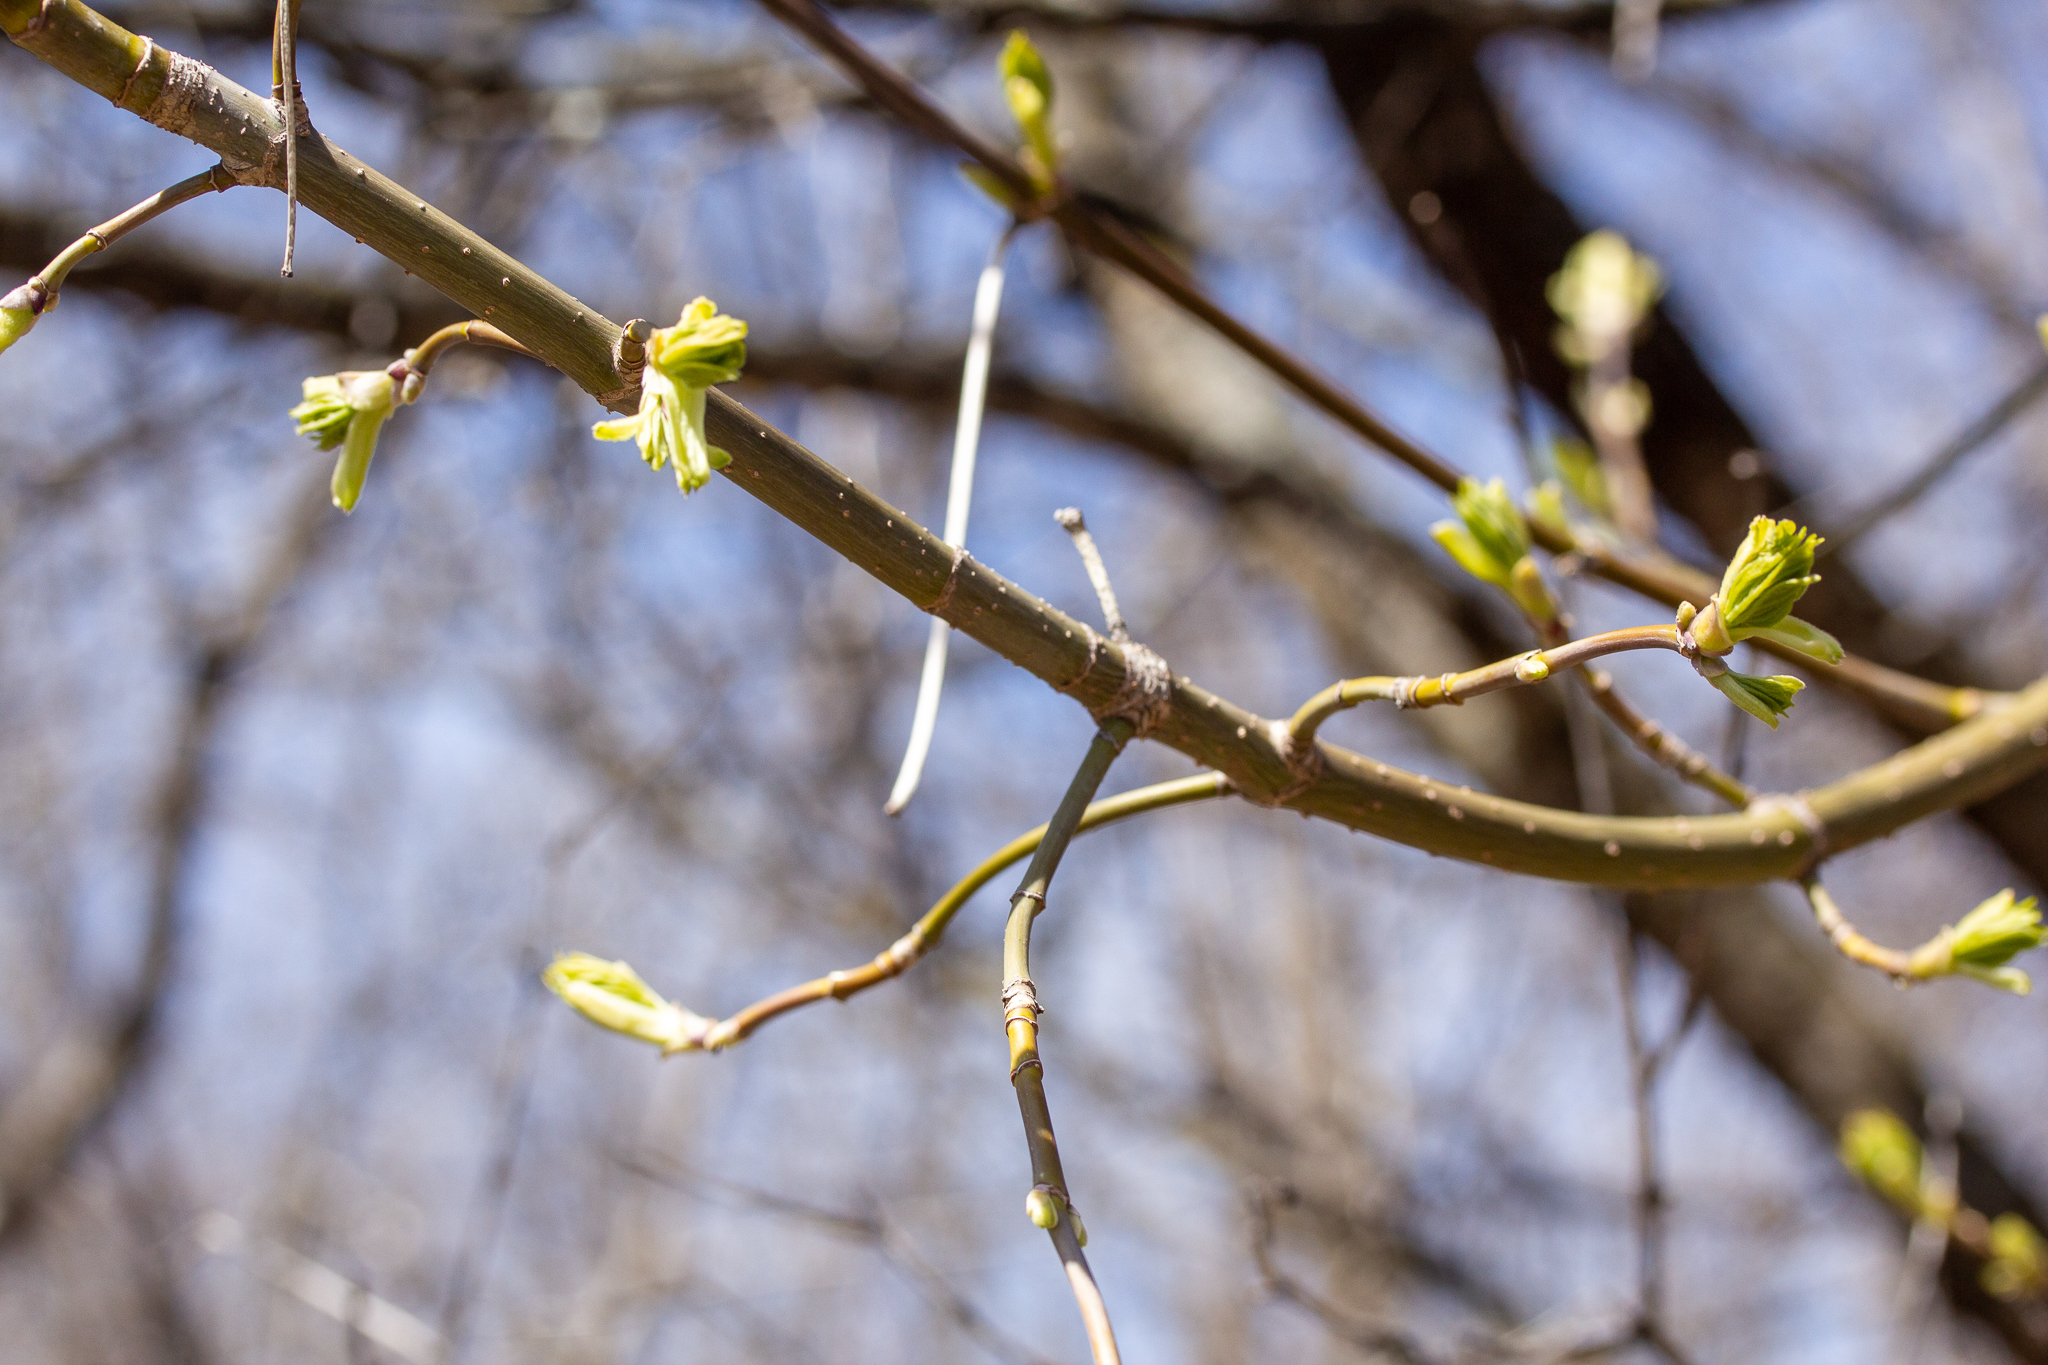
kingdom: Plantae
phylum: Tracheophyta
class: Magnoliopsida
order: Sapindales
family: Sapindaceae
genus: Acer
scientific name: Acer negundo
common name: Ashleaf maple
